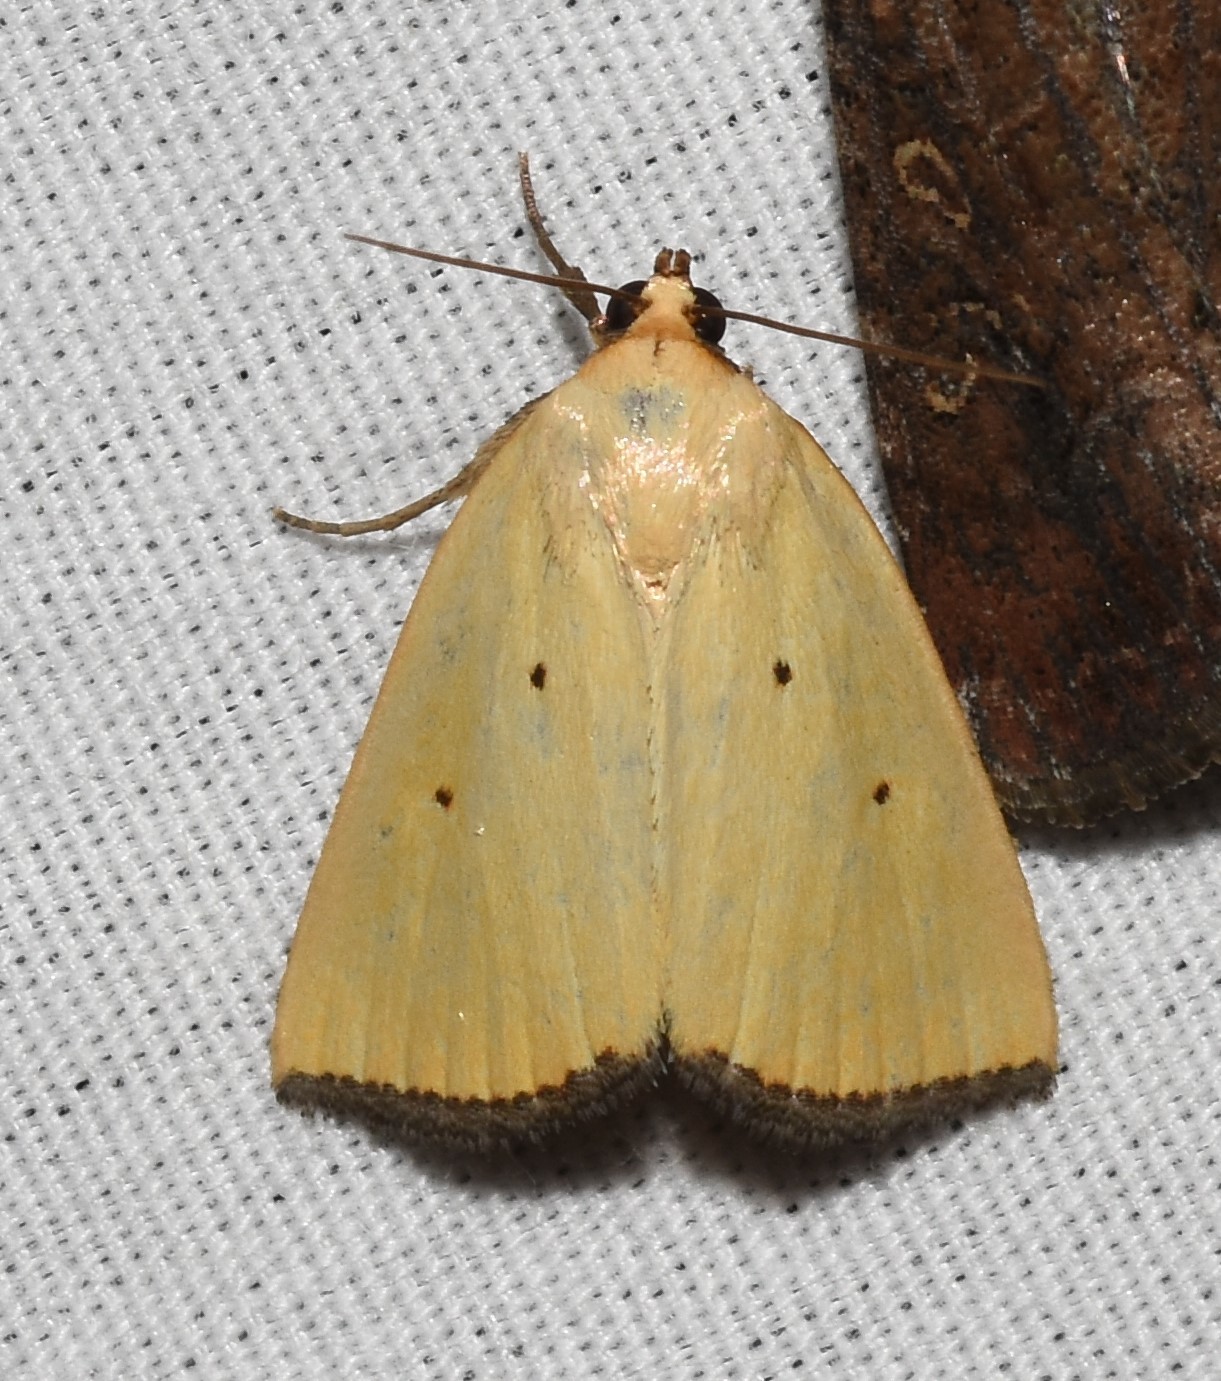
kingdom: Animalia
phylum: Arthropoda
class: Insecta
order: Lepidoptera
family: Noctuidae
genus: Marimatha
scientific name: Marimatha nigrofimbria
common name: Black-bordered lemon moth
